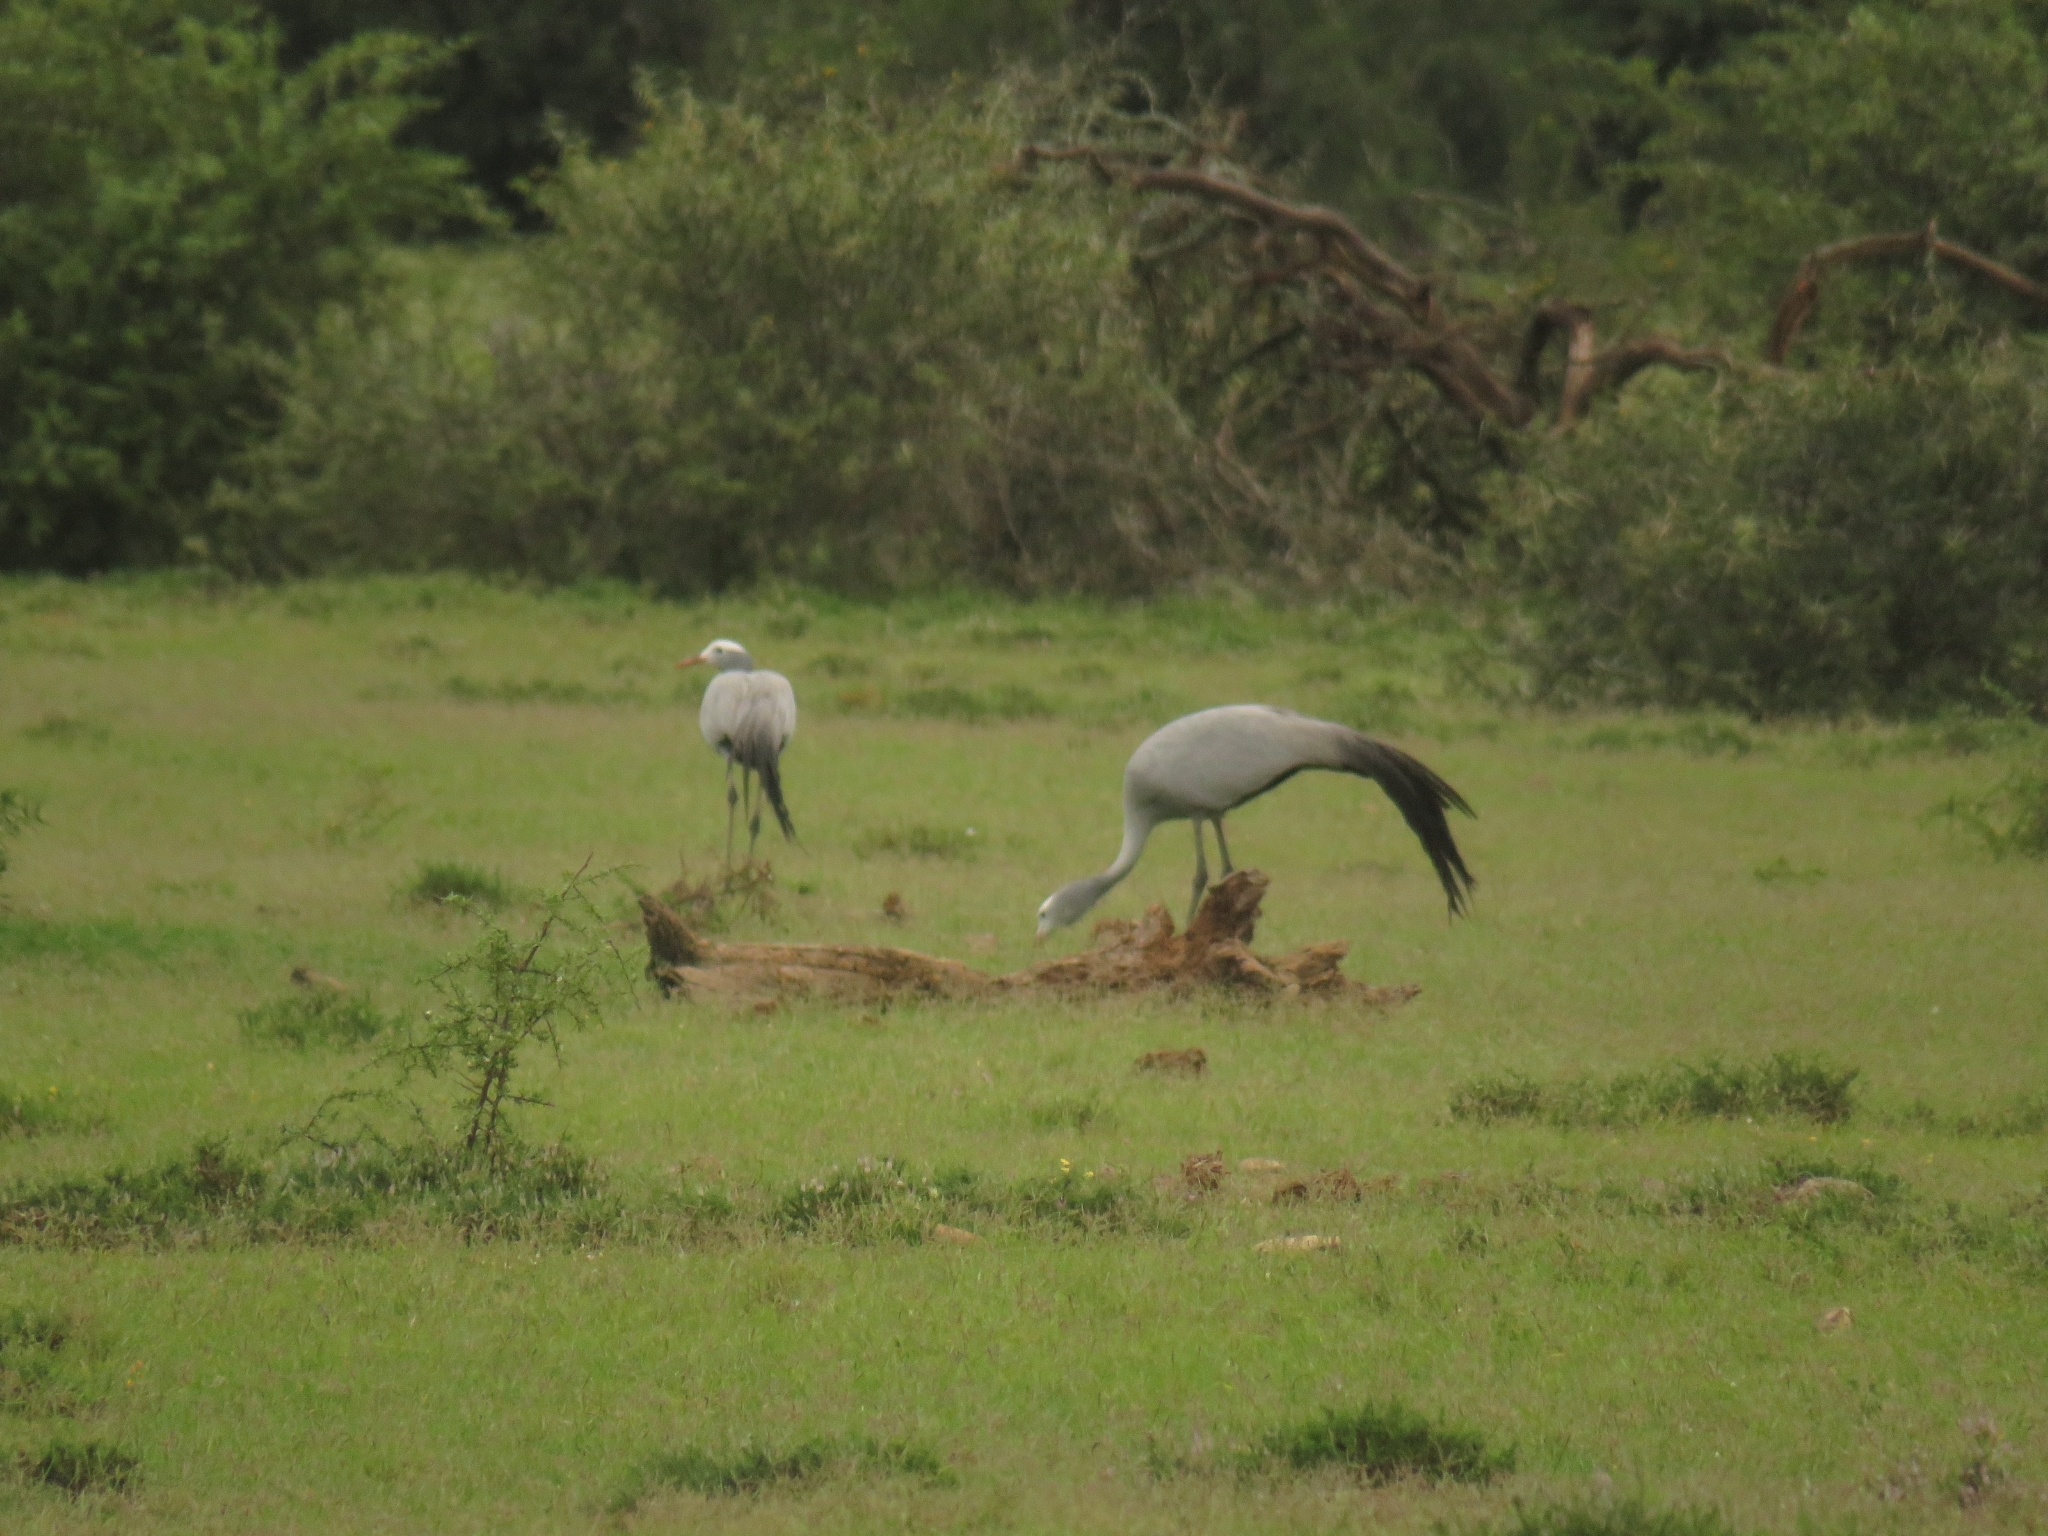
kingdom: Animalia
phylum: Chordata
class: Aves
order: Gruiformes
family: Gruidae
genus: Anthropoides
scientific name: Anthropoides paradiseus
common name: Blue crane
